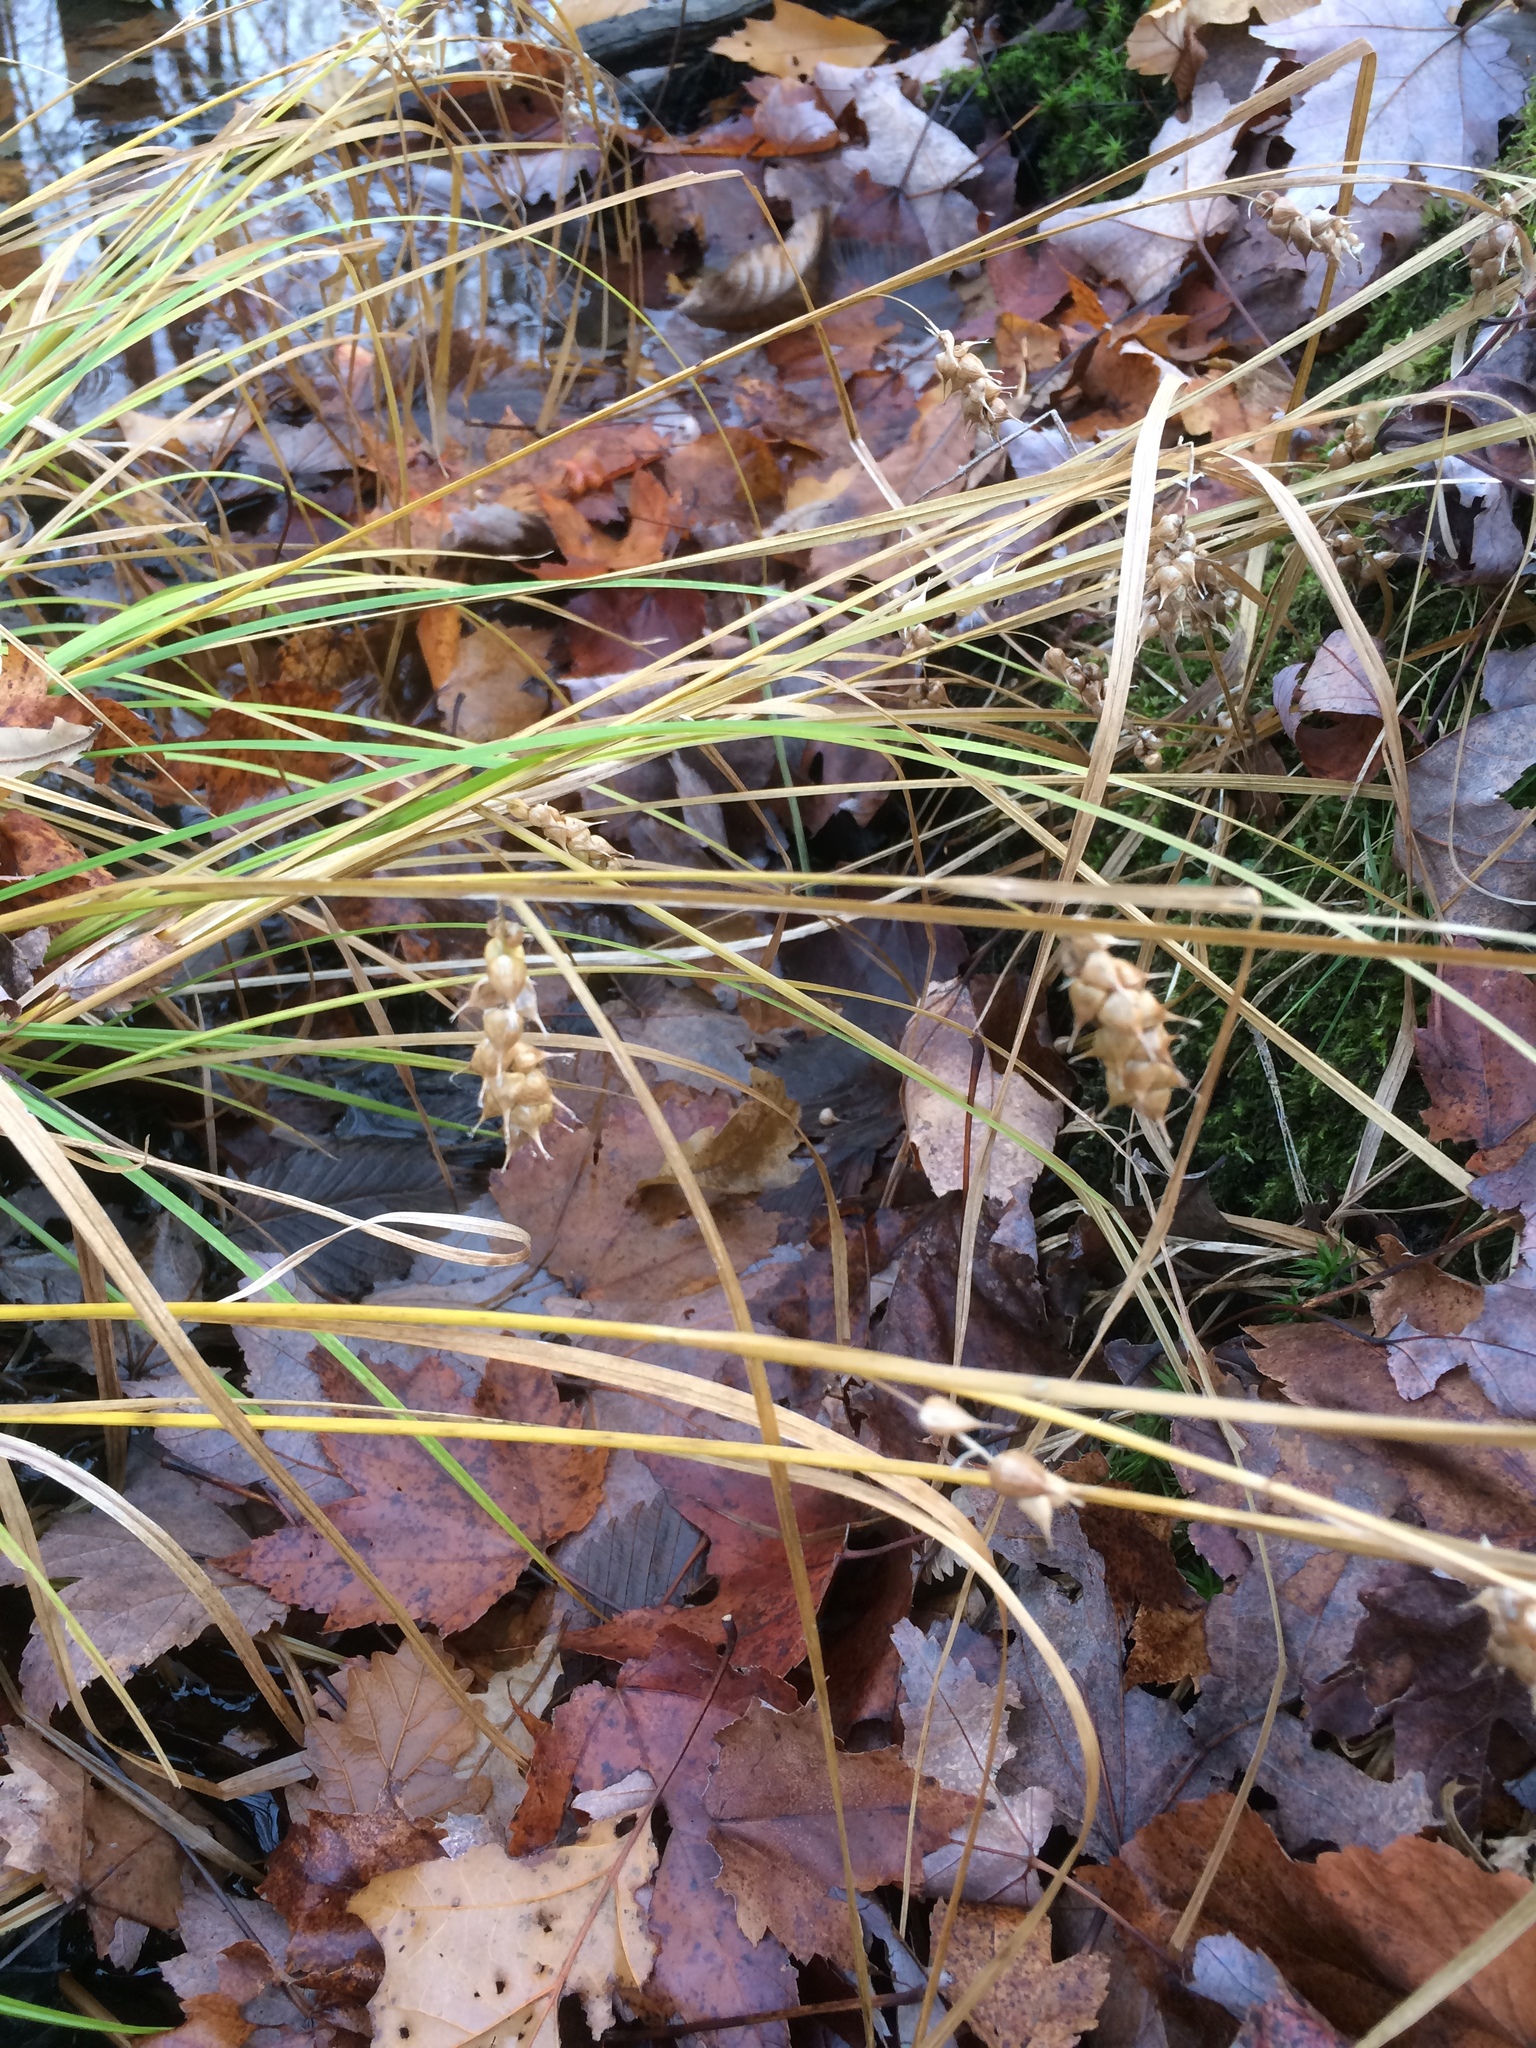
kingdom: Plantae
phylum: Tracheophyta
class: Liliopsida
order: Poales
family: Cyperaceae
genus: Carex
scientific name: Carex tuckermanii
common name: Tuckerman's sedge
